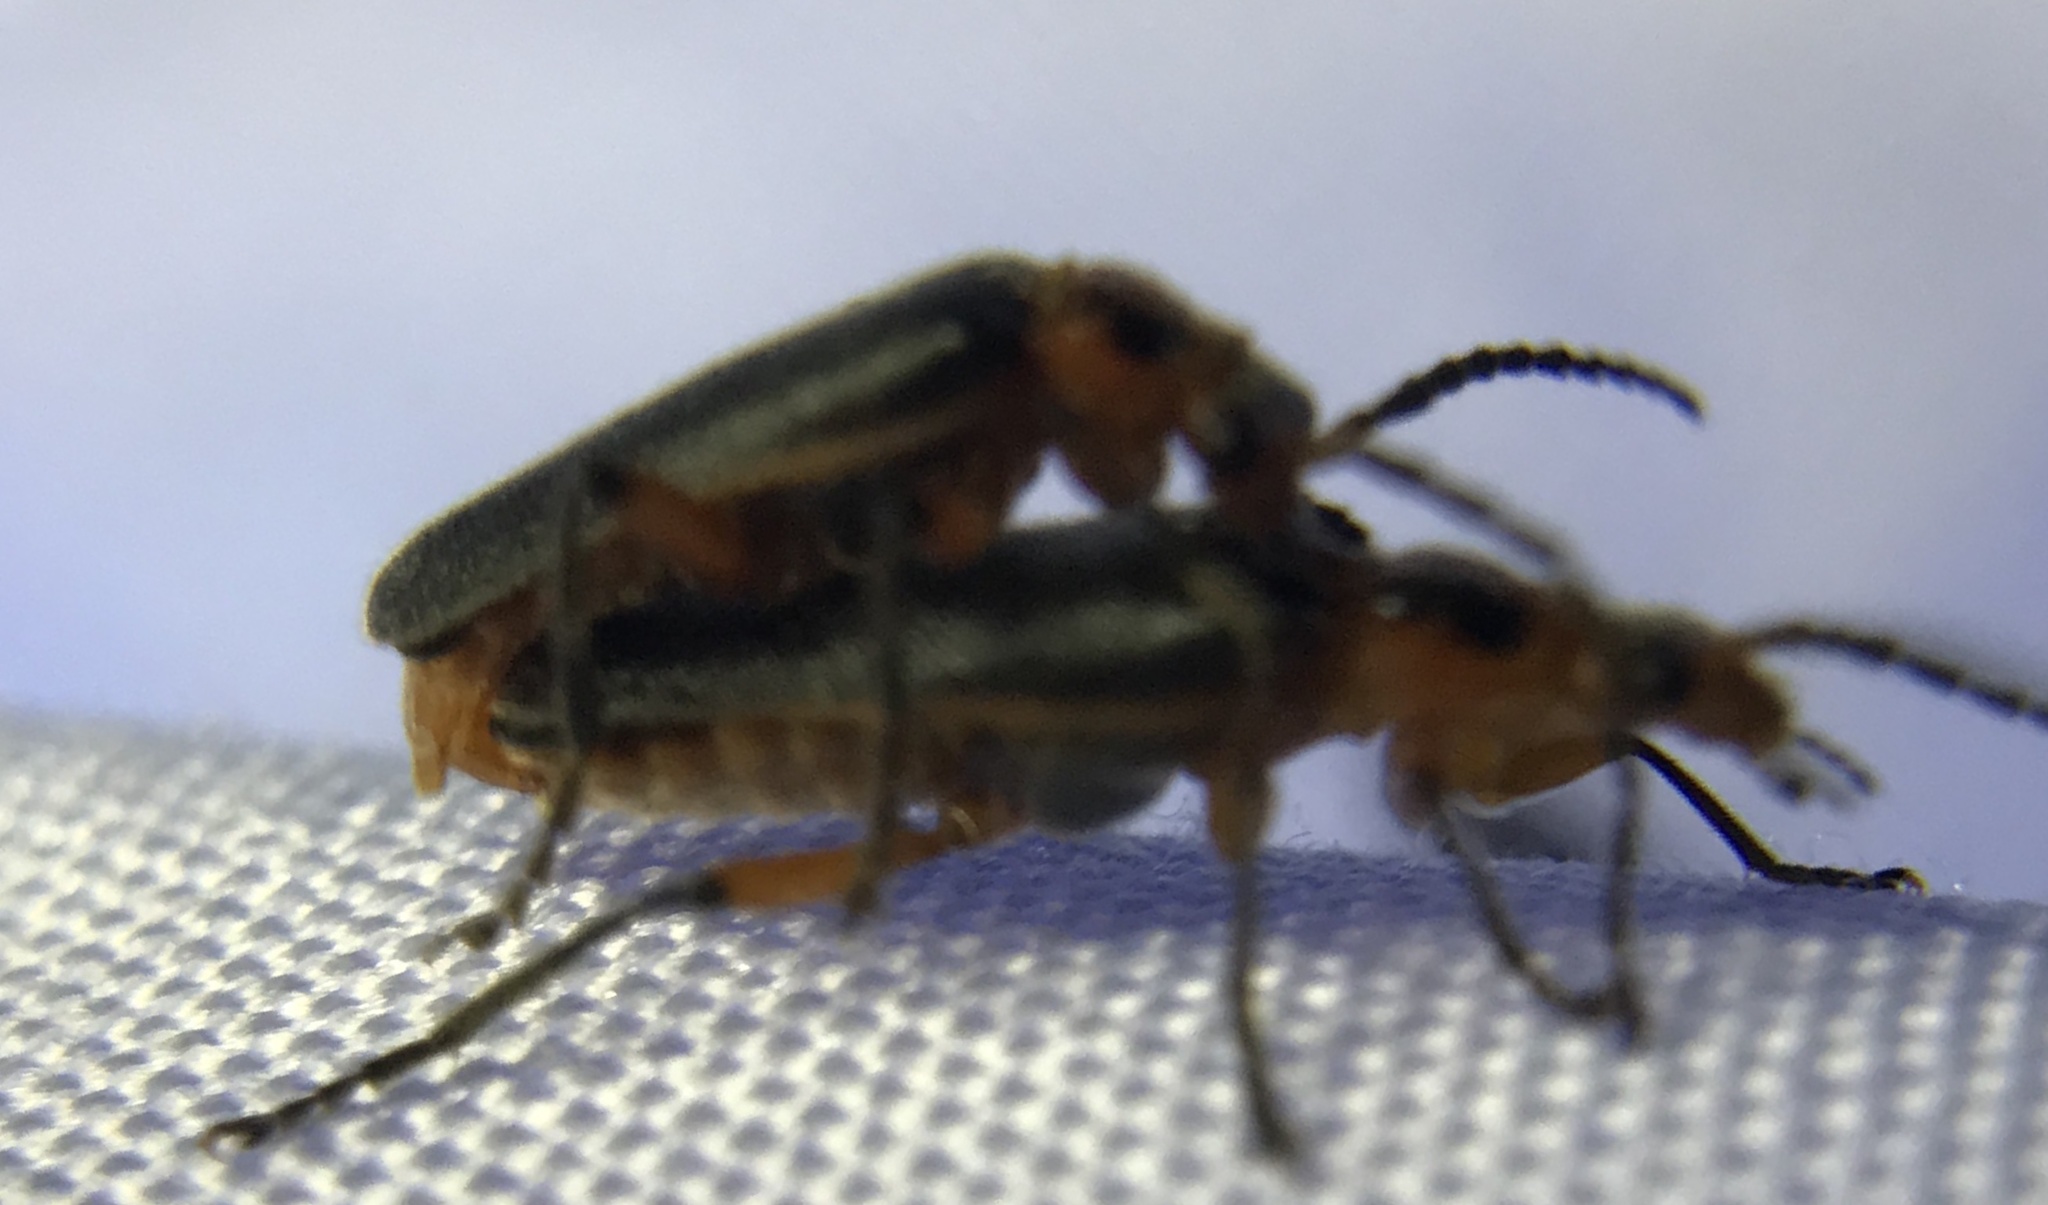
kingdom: Animalia
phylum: Arthropoda
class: Insecta
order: Coleoptera
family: Cantharidae
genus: Atalantycha
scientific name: Atalantycha bilineata
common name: Two-lined leatherwing
